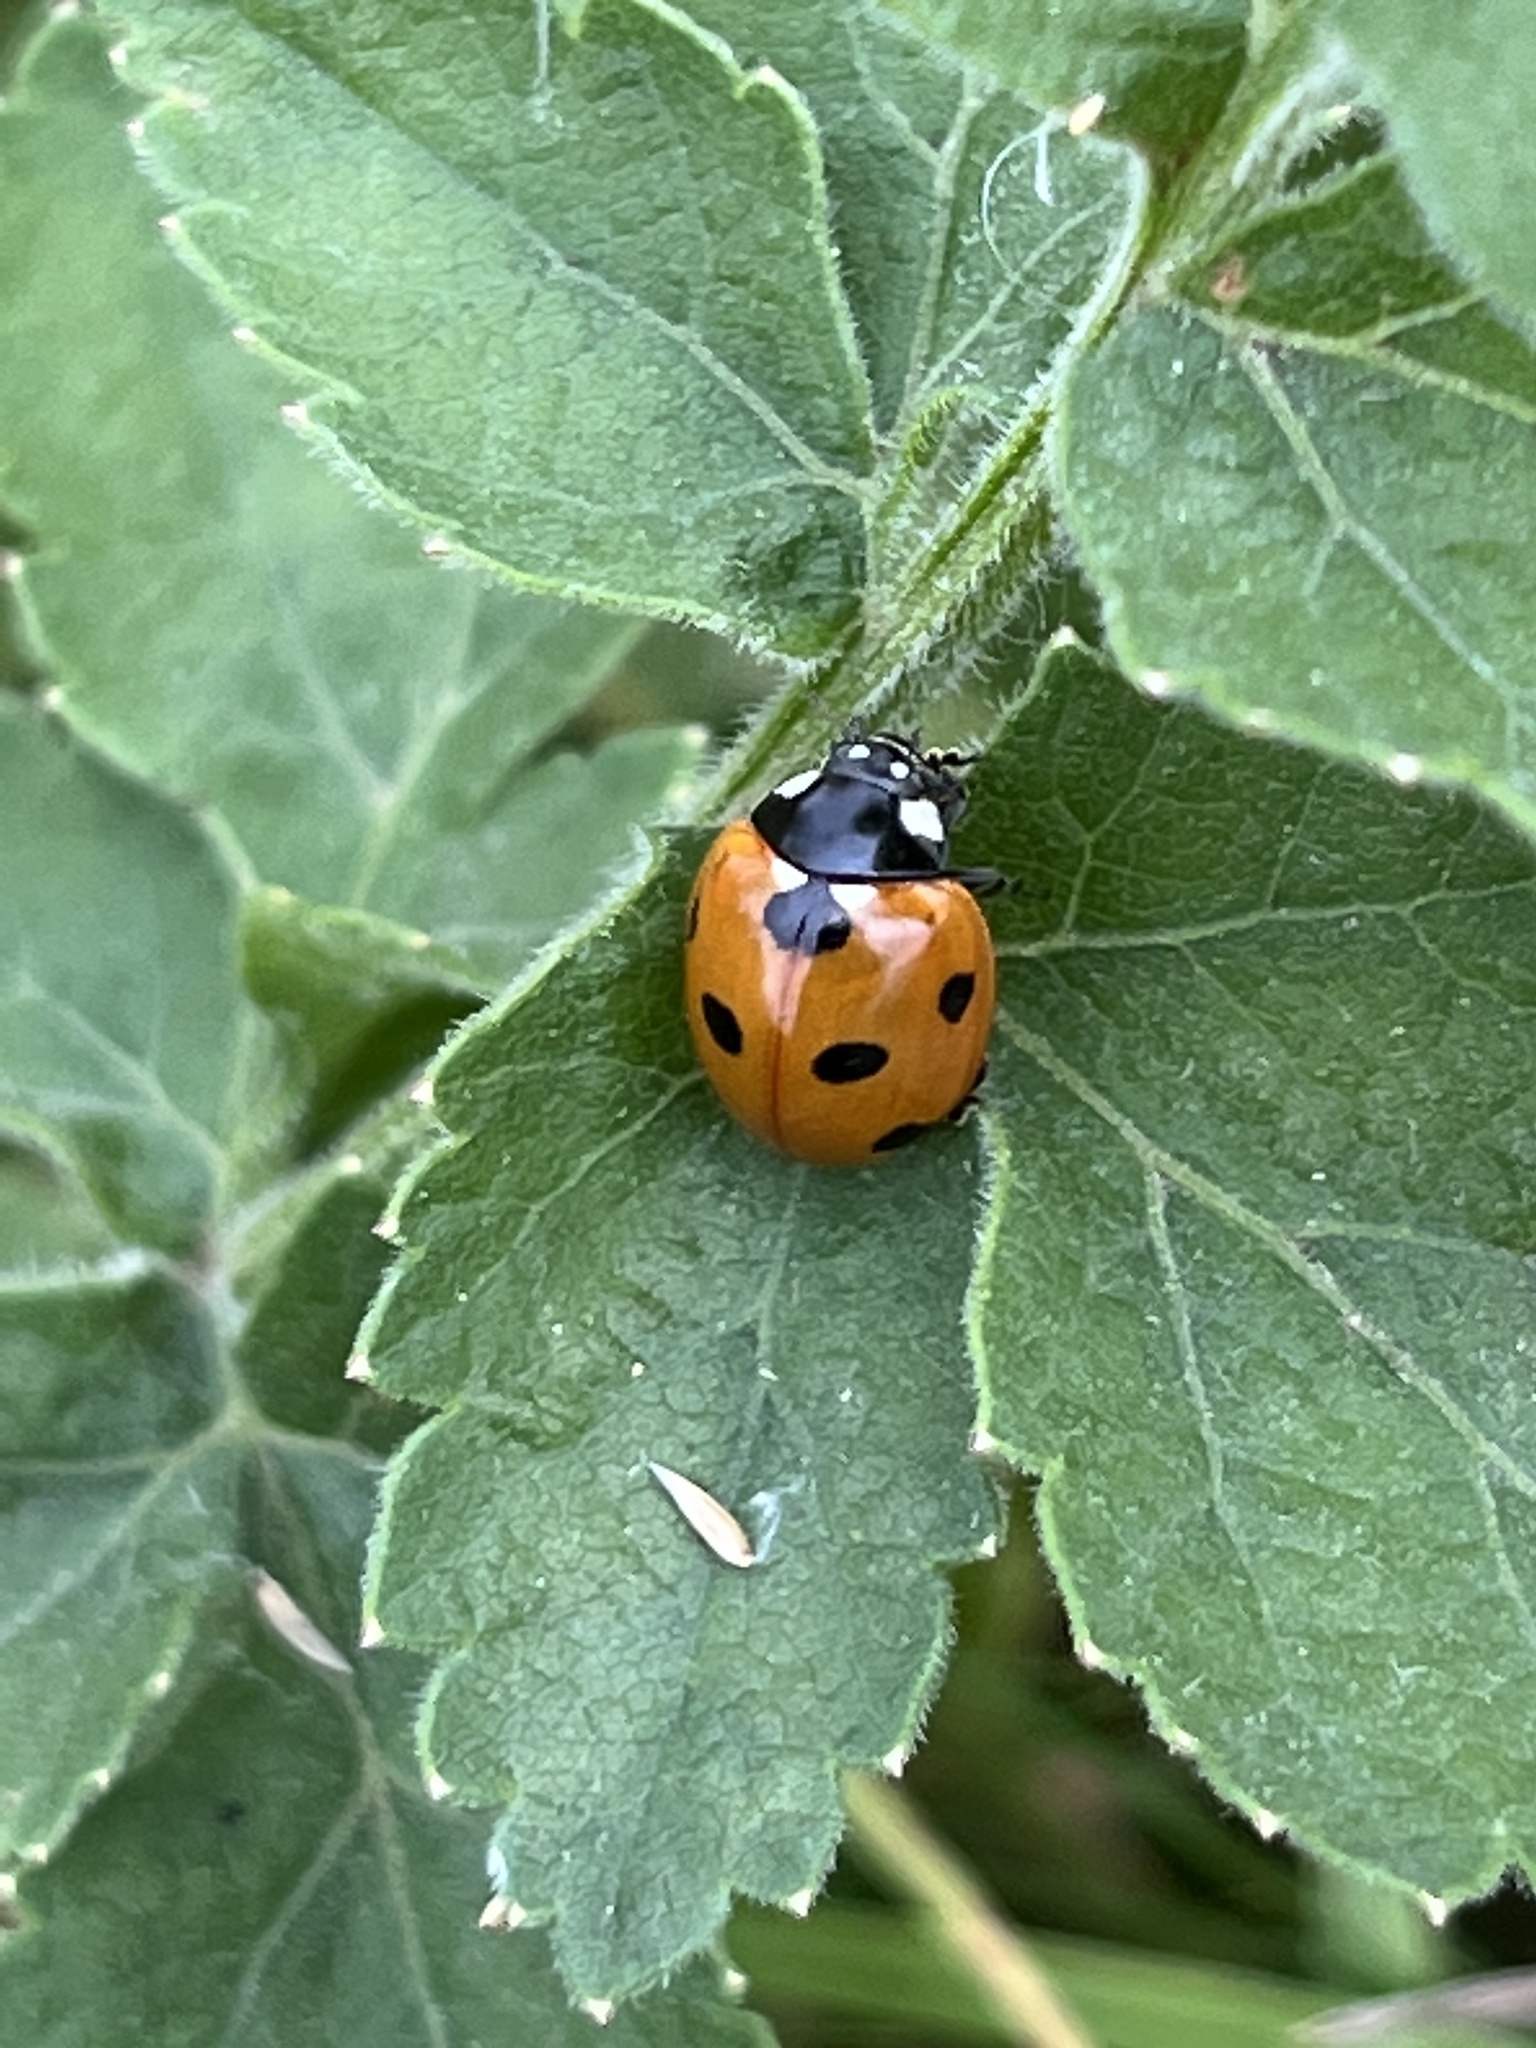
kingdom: Animalia
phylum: Arthropoda
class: Insecta
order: Coleoptera
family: Coccinellidae
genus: Coccinella
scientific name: Coccinella septempunctata
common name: Sevenspotted lady beetle
